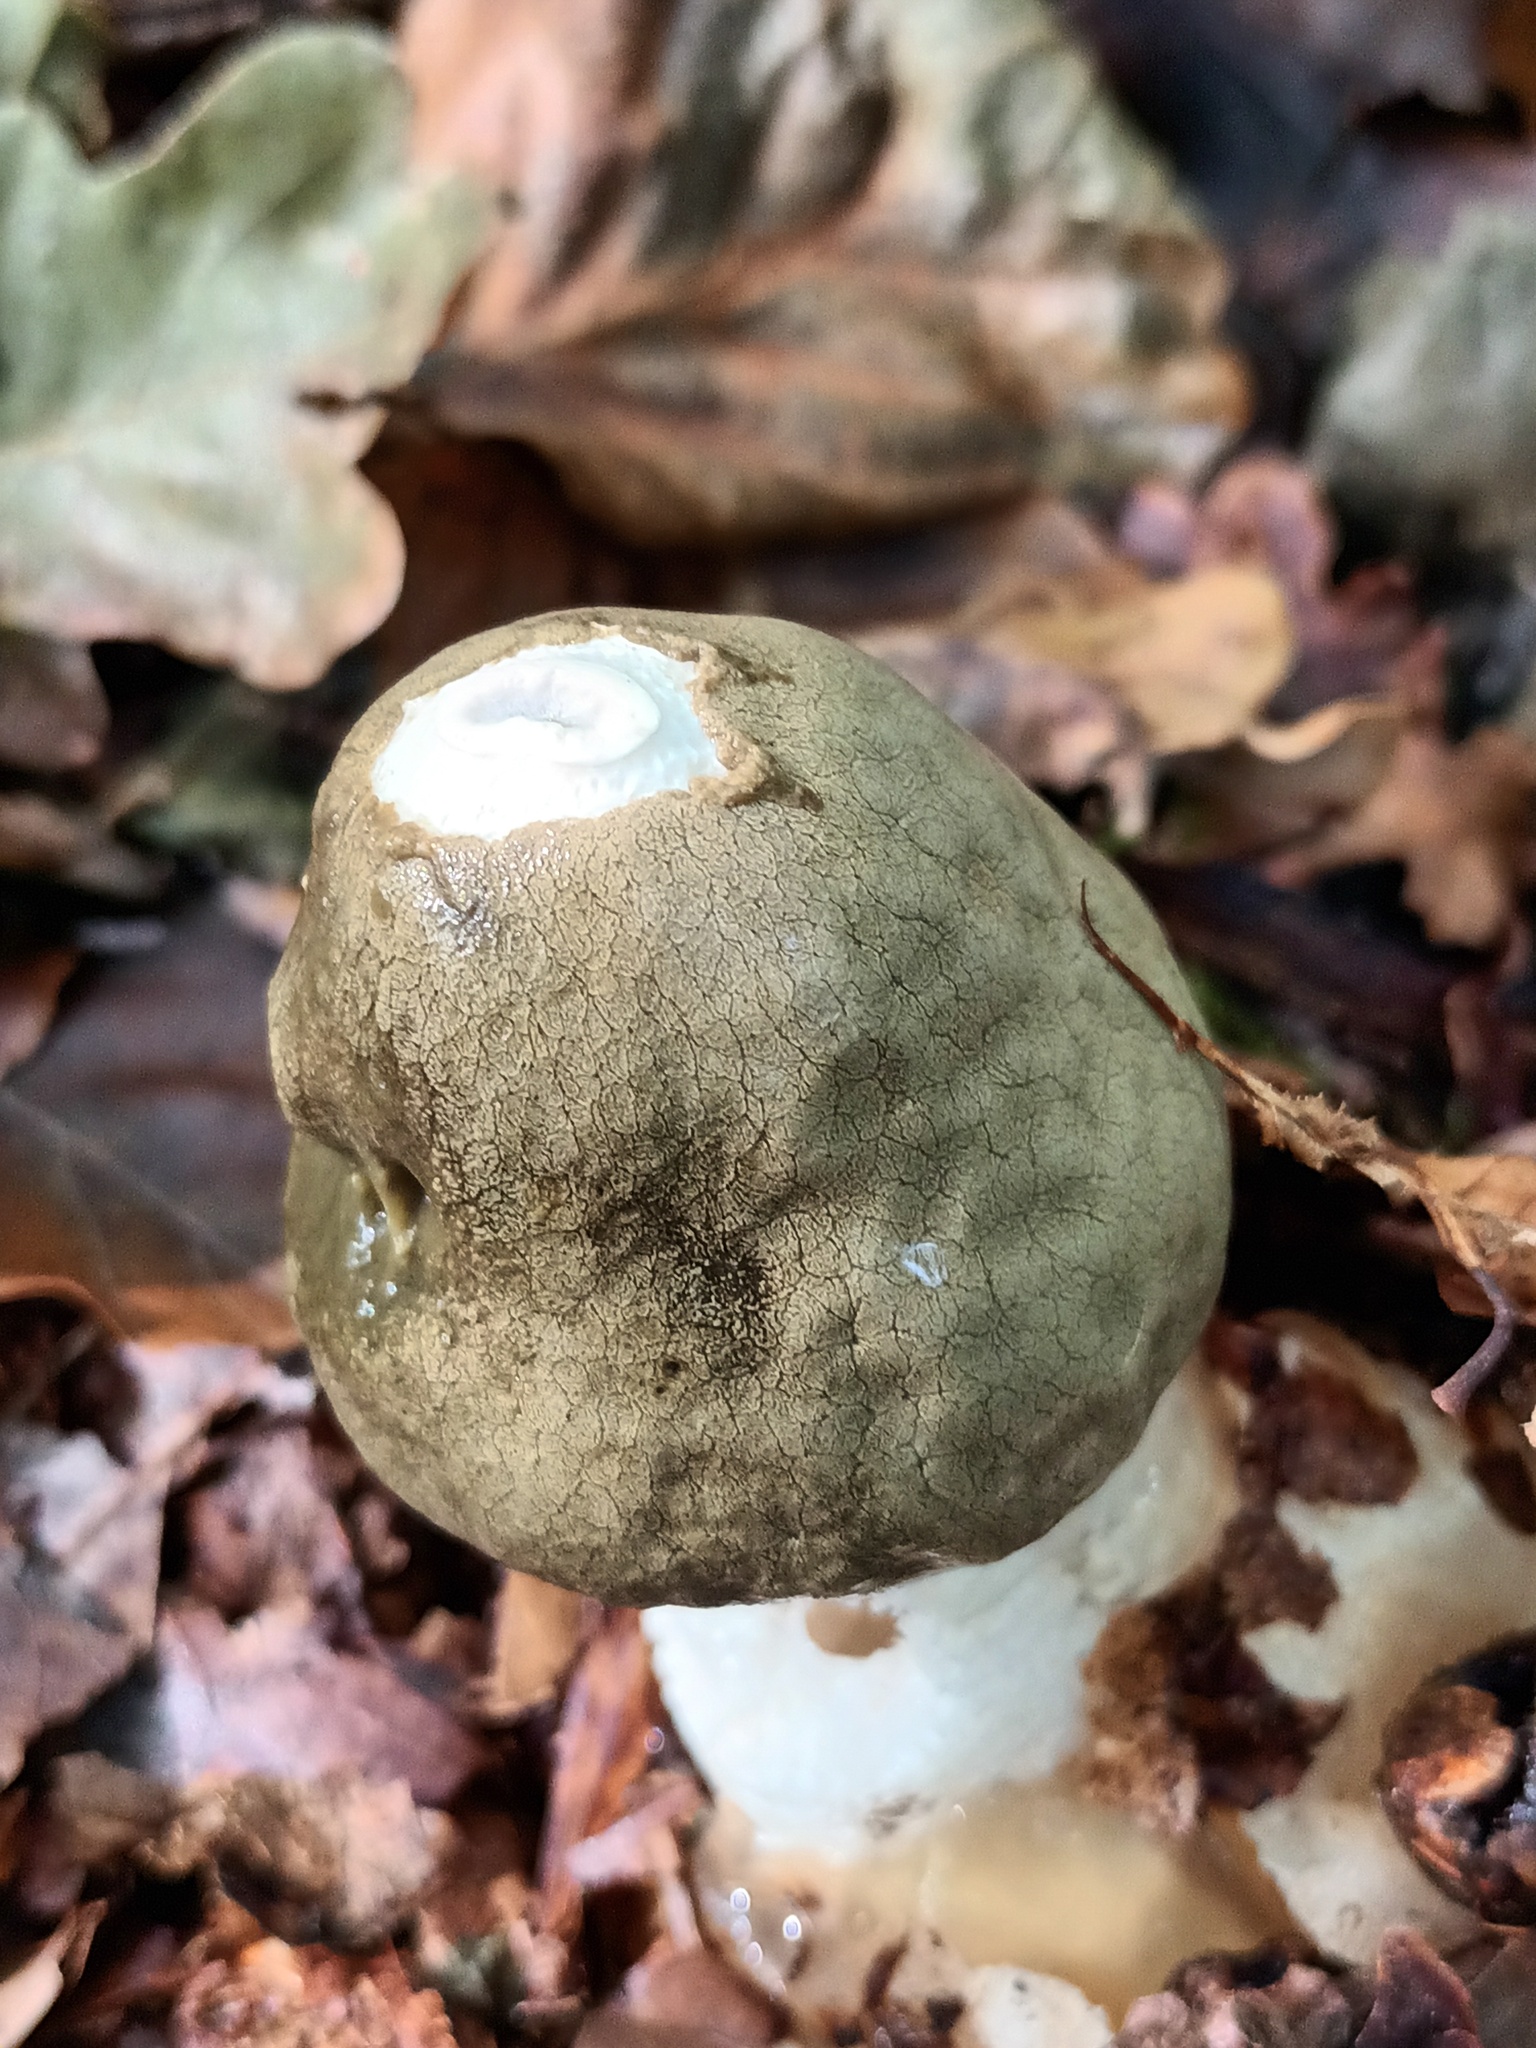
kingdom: Fungi
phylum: Basidiomycota
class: Agaricomycetes
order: Phallales
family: Phallaceae
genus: Phallus
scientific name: Phallus impudicus
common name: Common stinkhorn
